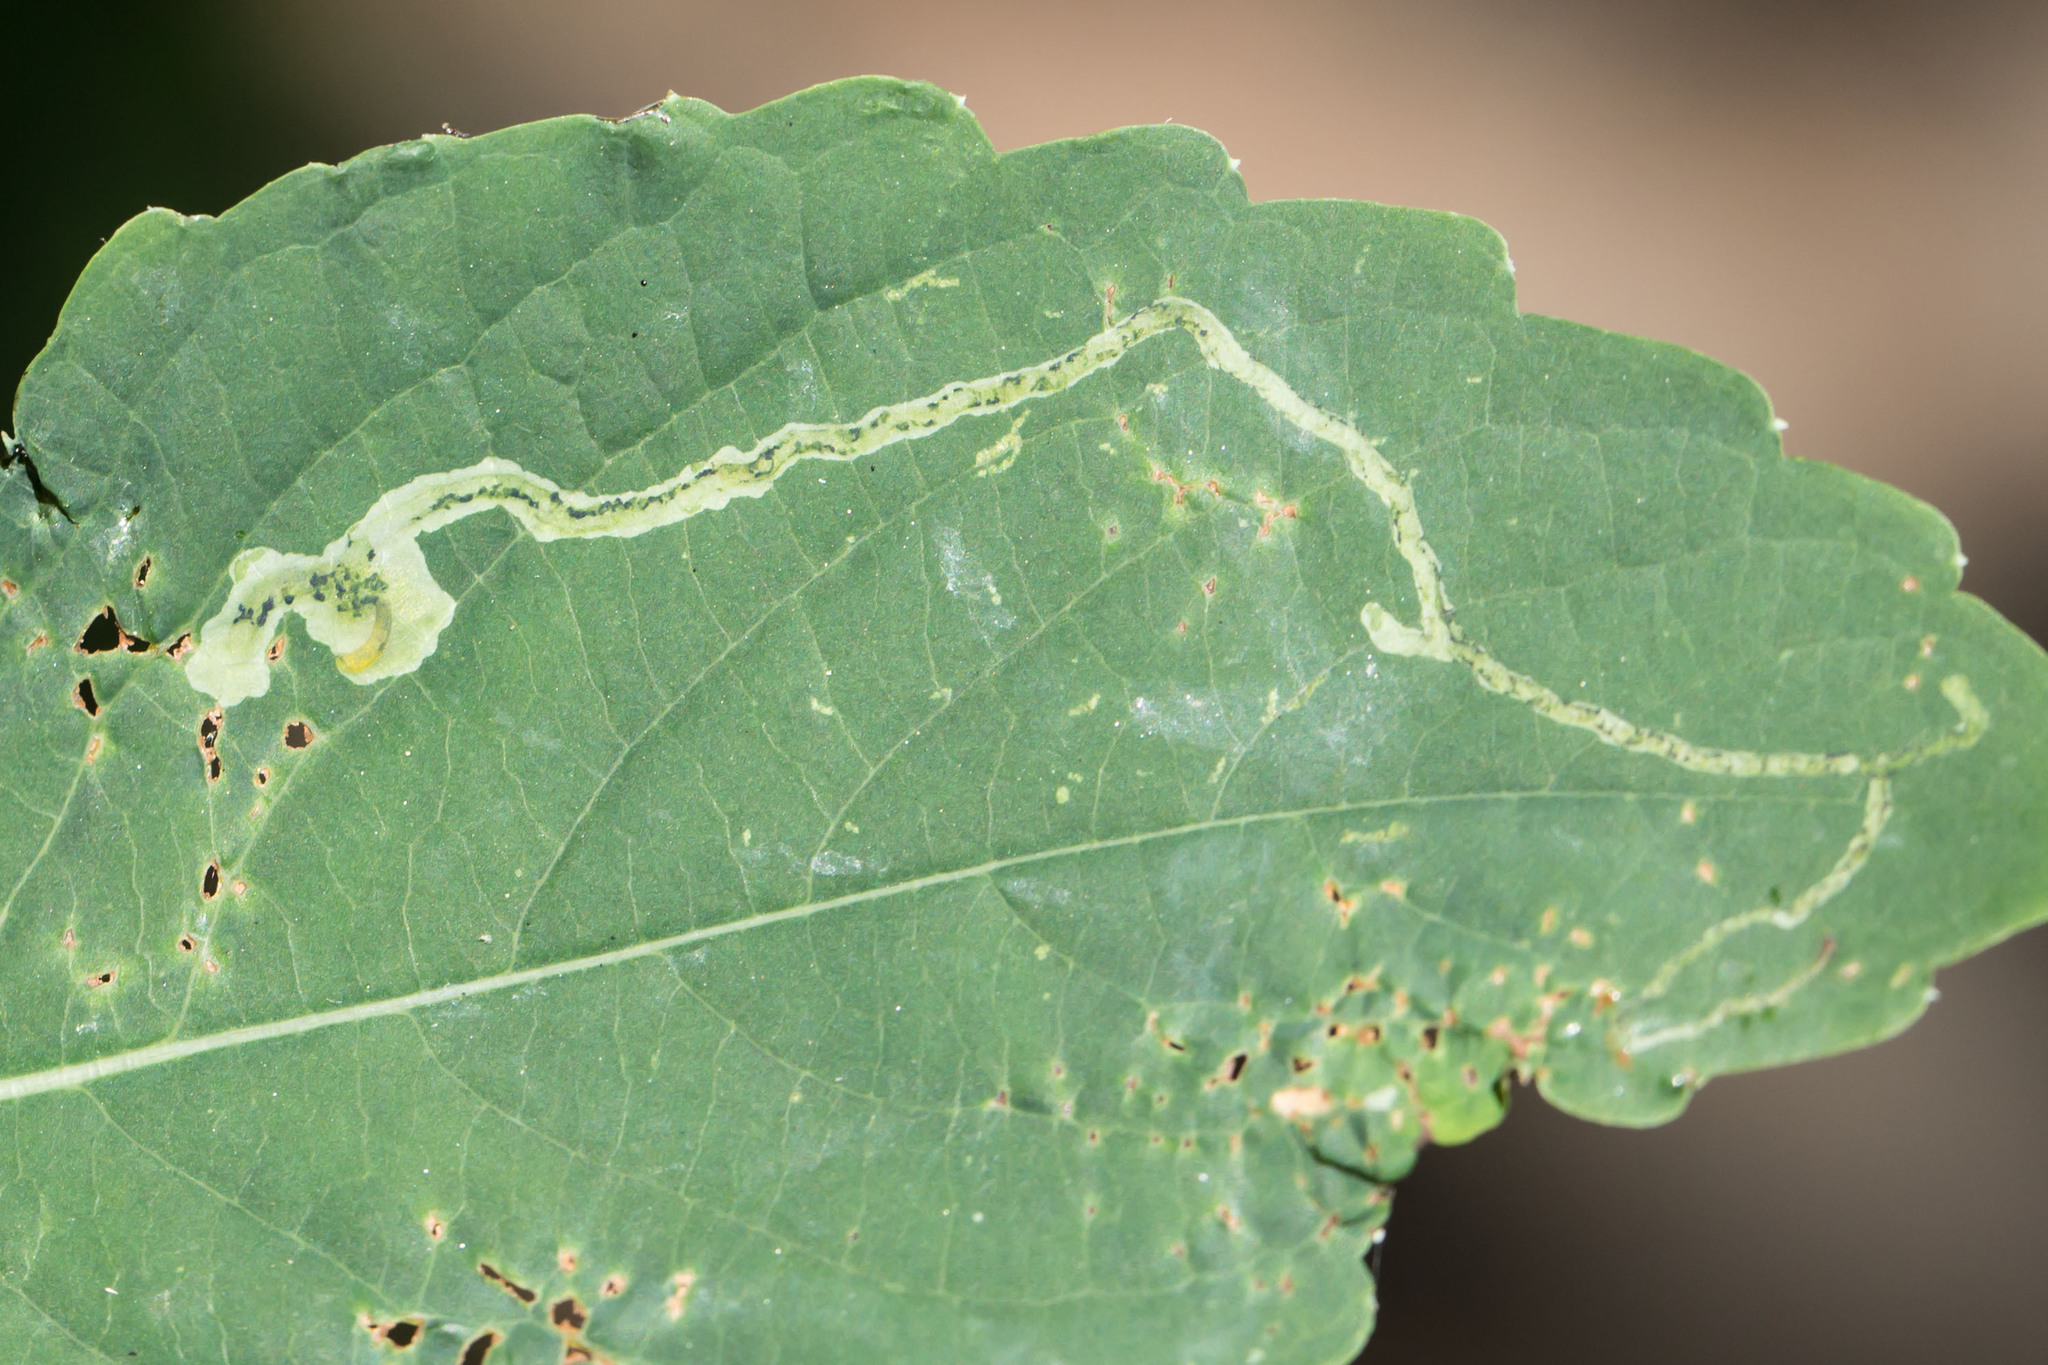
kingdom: Animalia
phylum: Arthropoda
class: Insecta
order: Diptera
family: Agromyzidae
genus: Phytoliriomyza
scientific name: Phytoliriomyza melampyga
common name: Jewelweed leaf-miner fly
